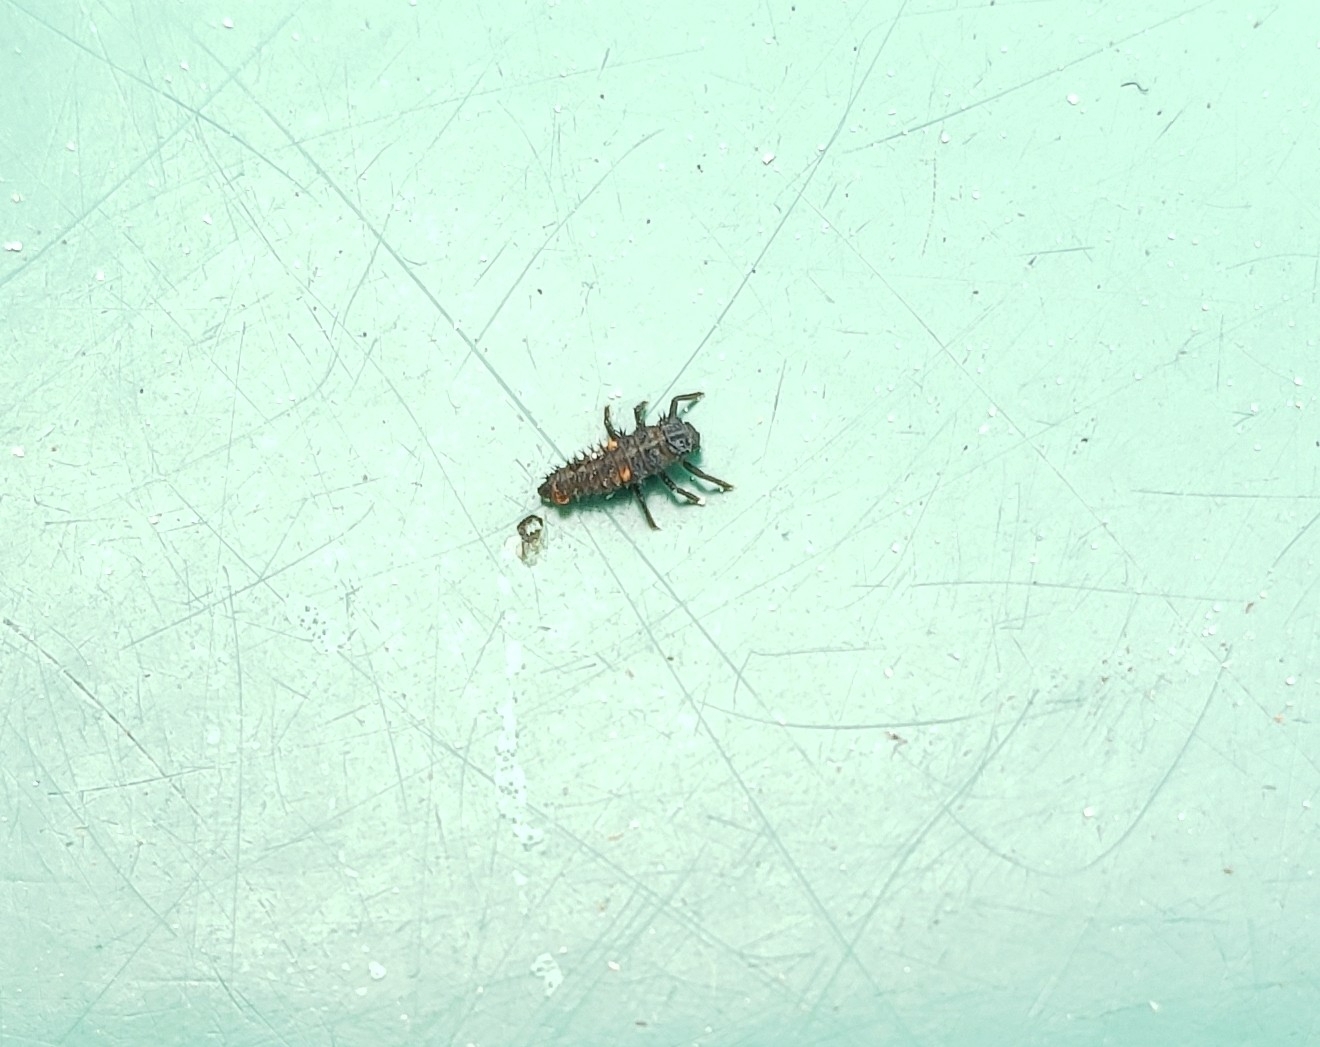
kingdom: Animalia
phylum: Arthropoda
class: Insecta
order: Coleoptera
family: Coccinellidae
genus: Harmonia
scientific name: Harmonia axyridis
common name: Harlequin ladybird
